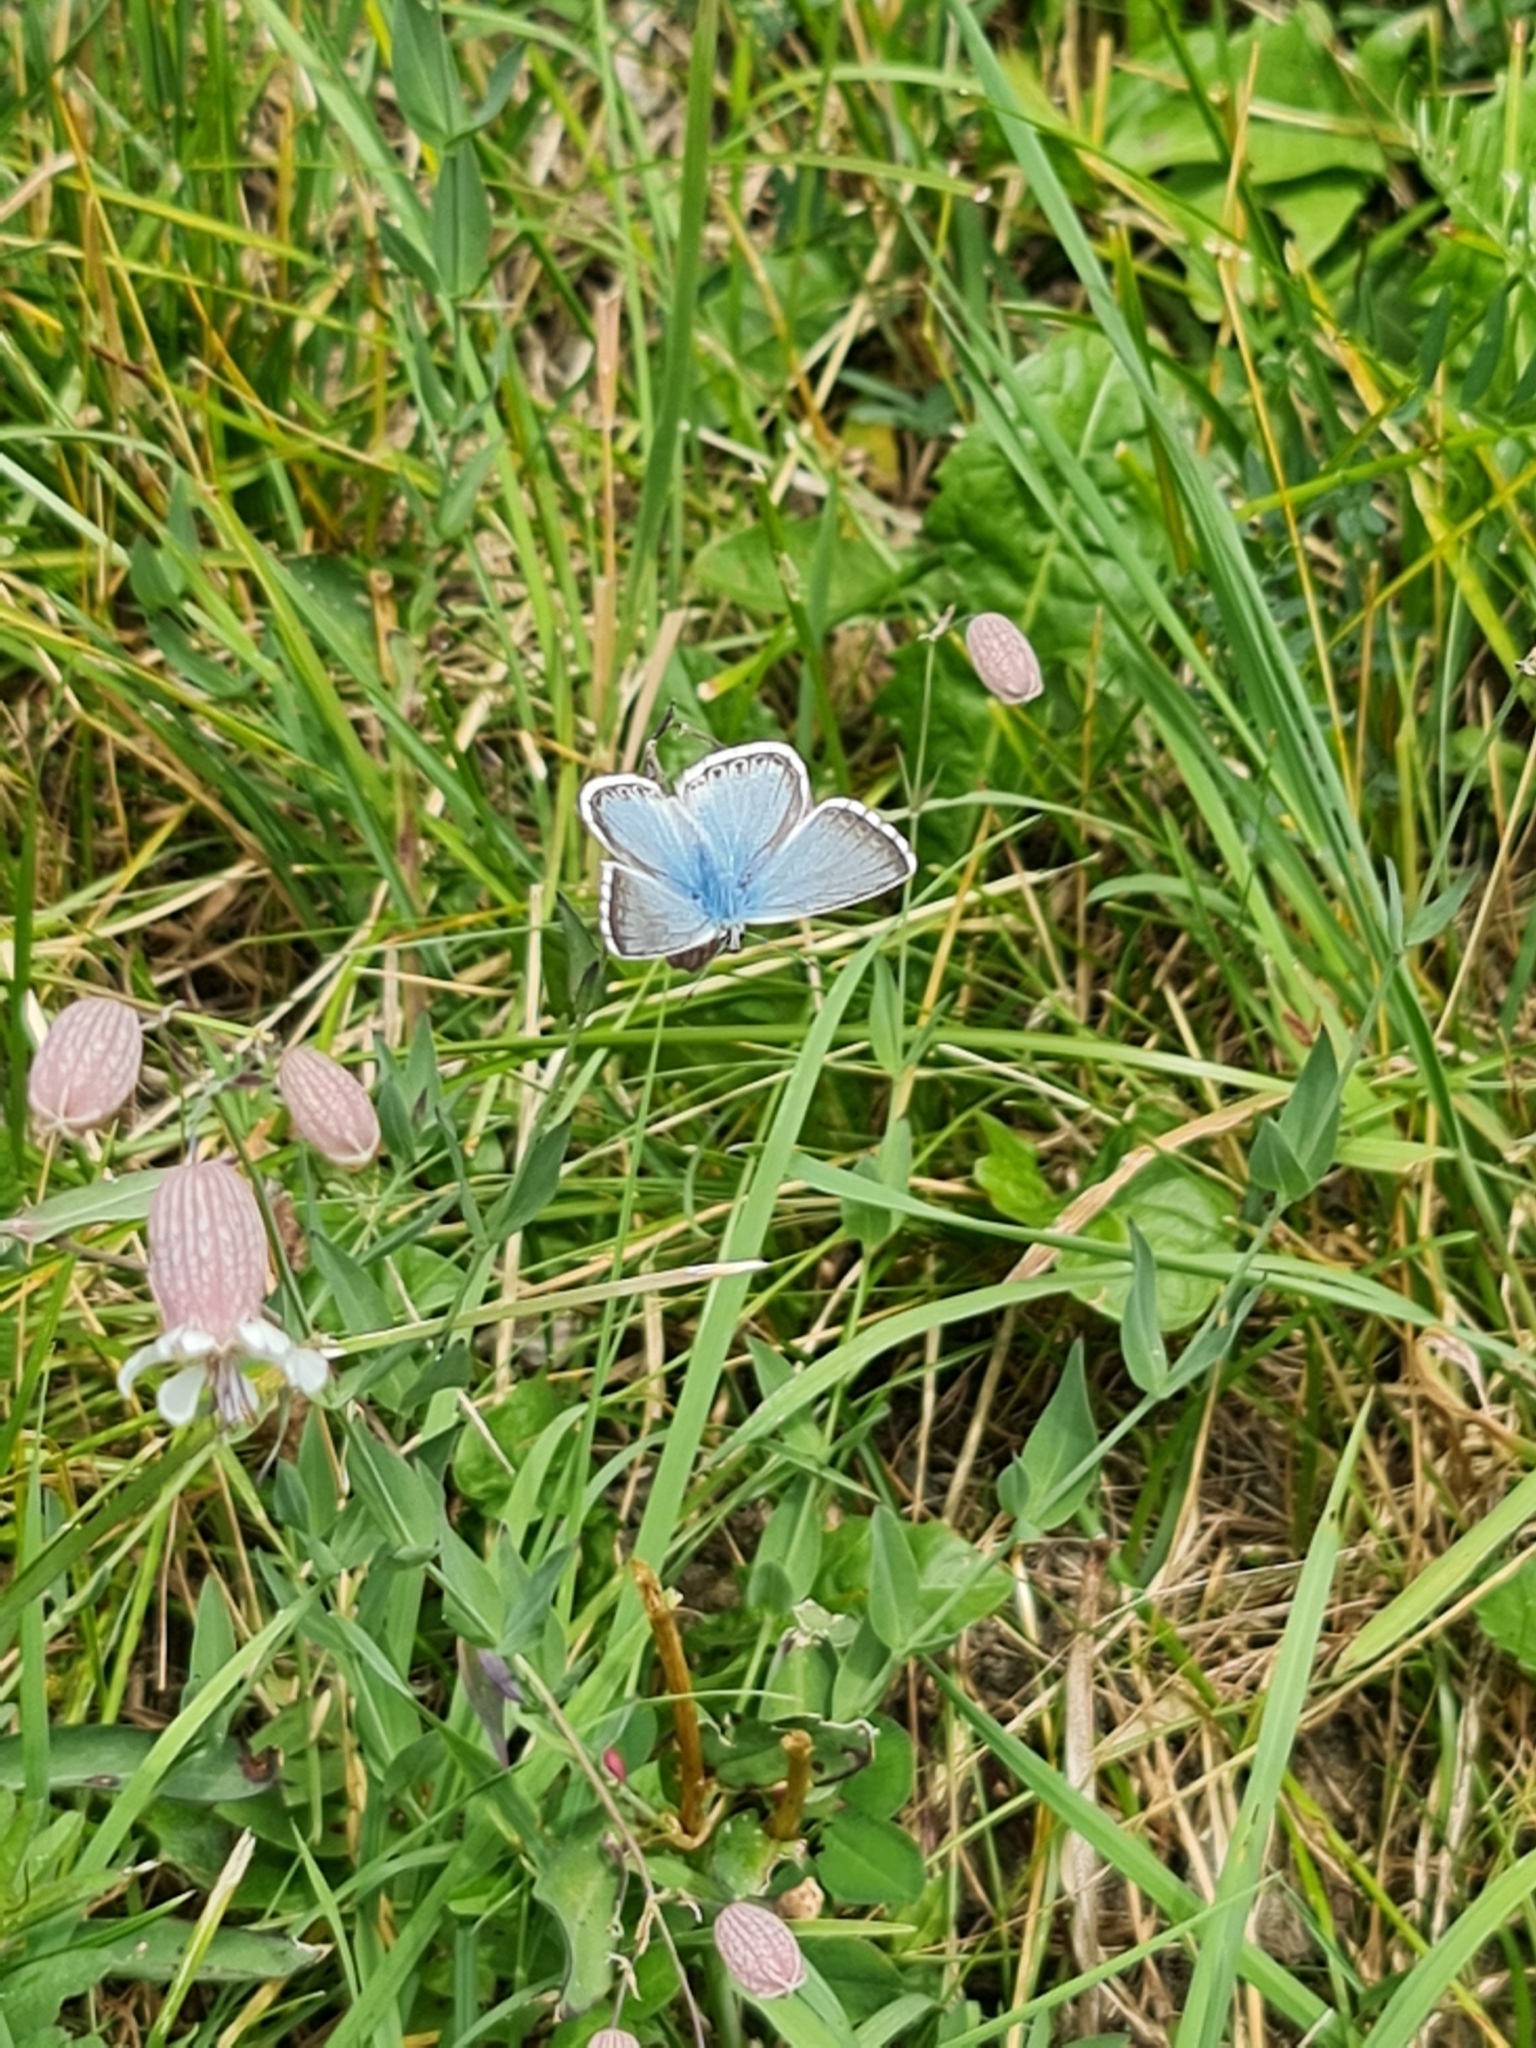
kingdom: Animalia
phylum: Arthropoda
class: Insecta
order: Lepidoptera
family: Lycaenidae
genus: Lysandra
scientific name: Lysandra coridon
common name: Chalkhill blue
